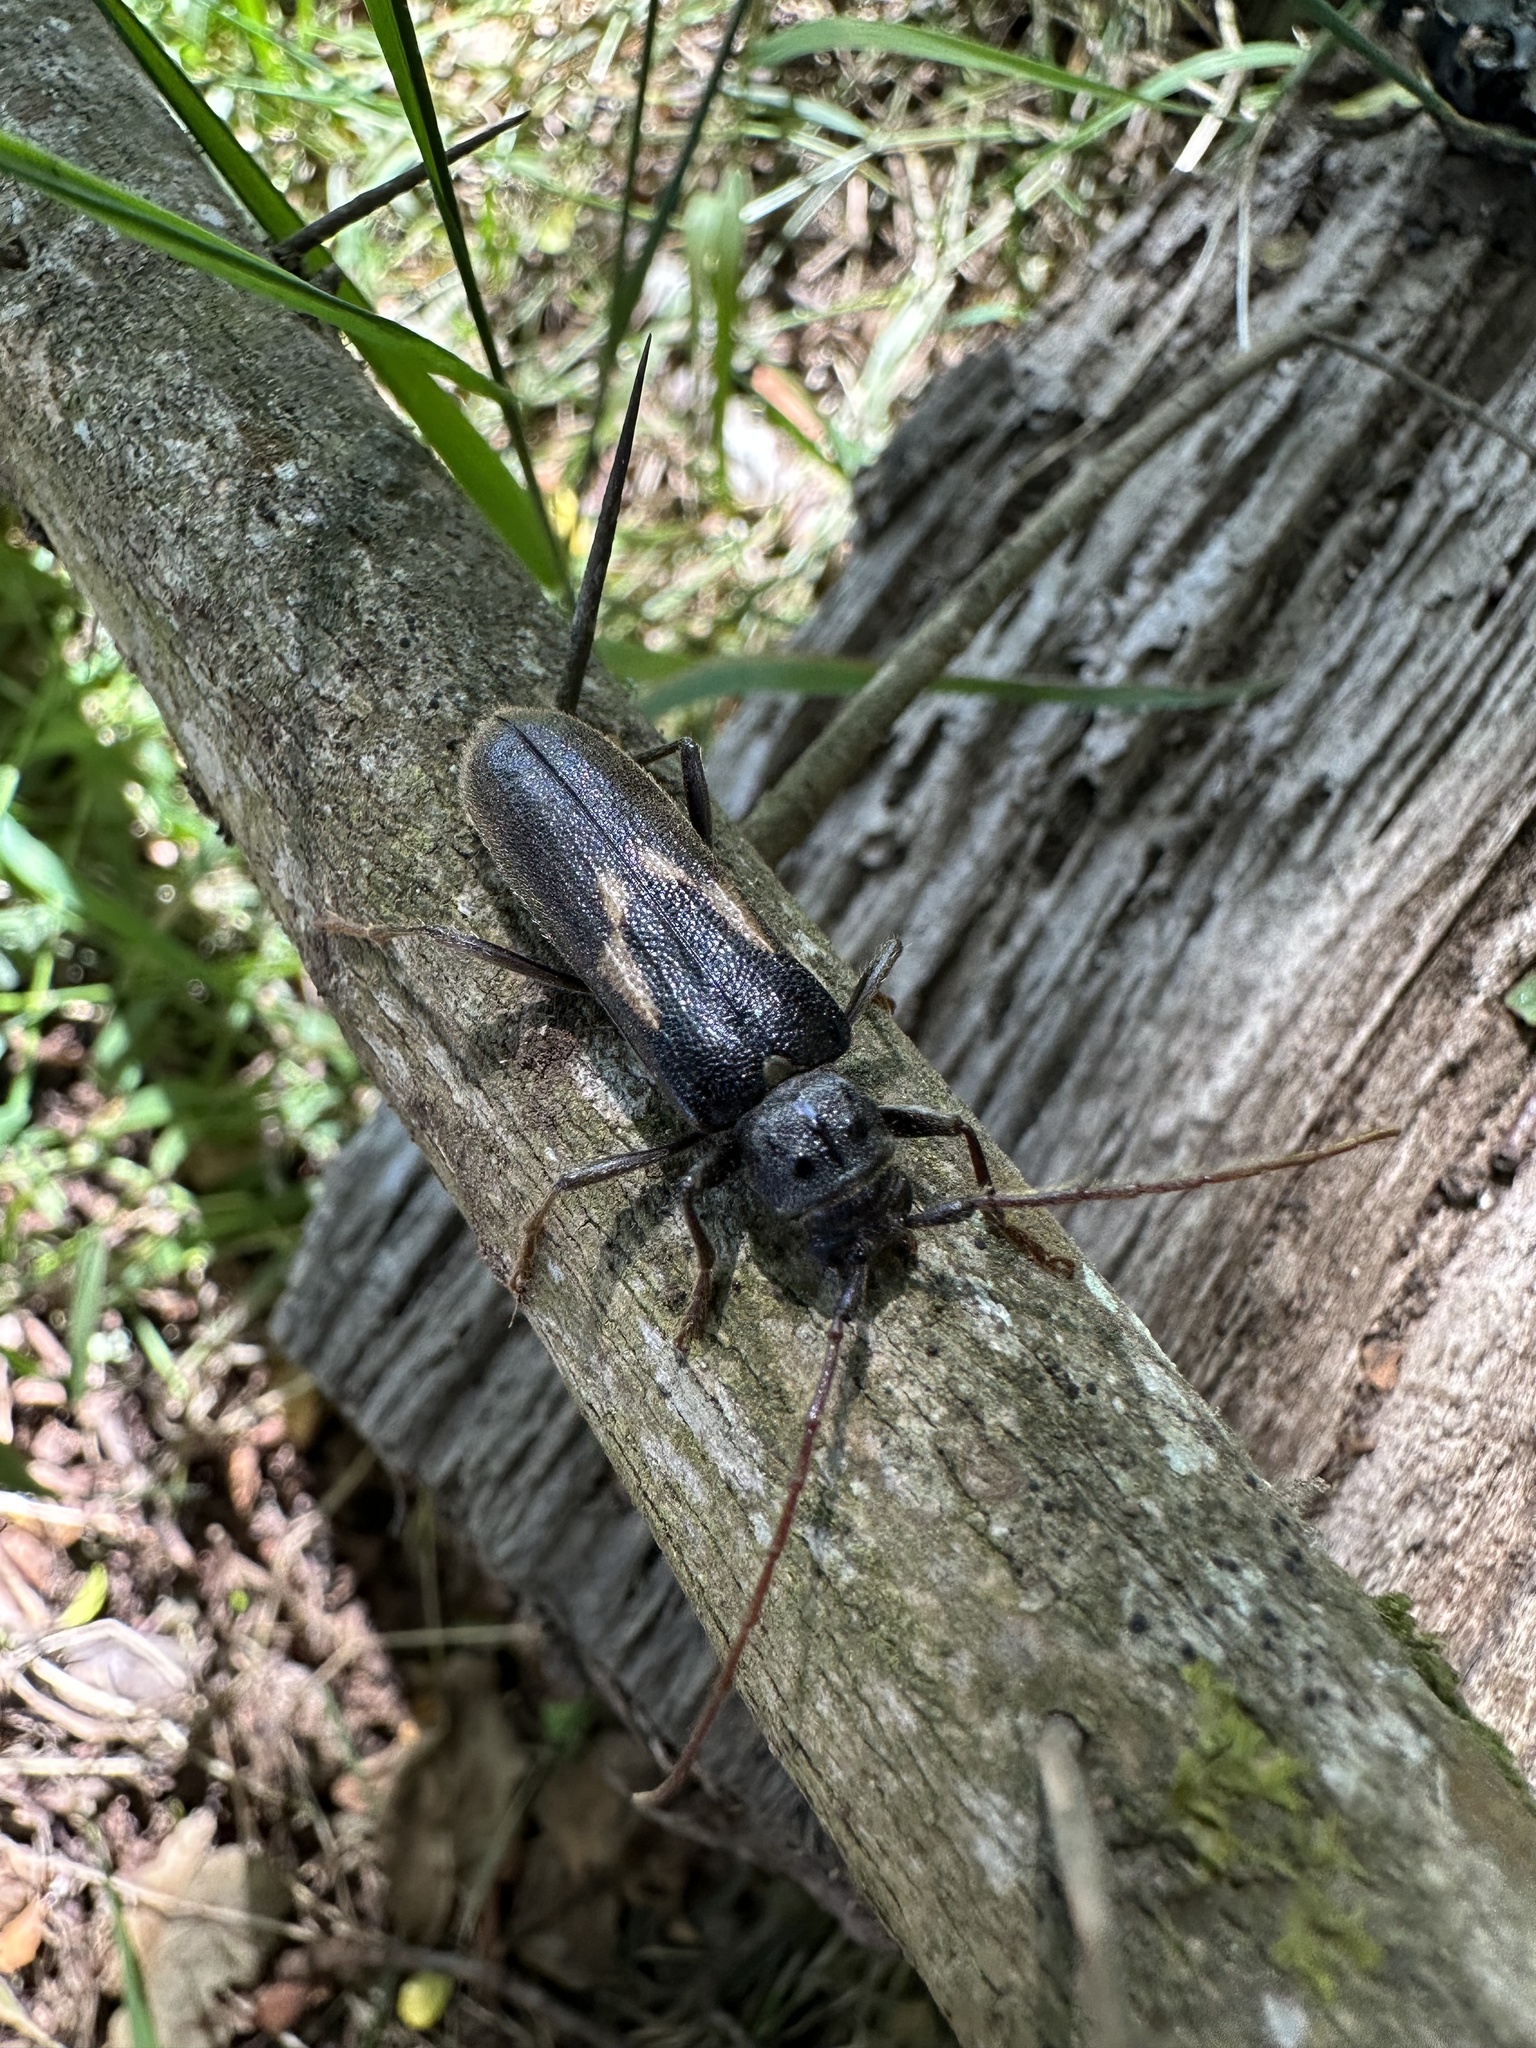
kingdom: Animalia
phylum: Arthropoda
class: Insecta
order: Coleoptera
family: Cerambycidae
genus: Grammicosum
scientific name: Grammicosum flavofasciatum
